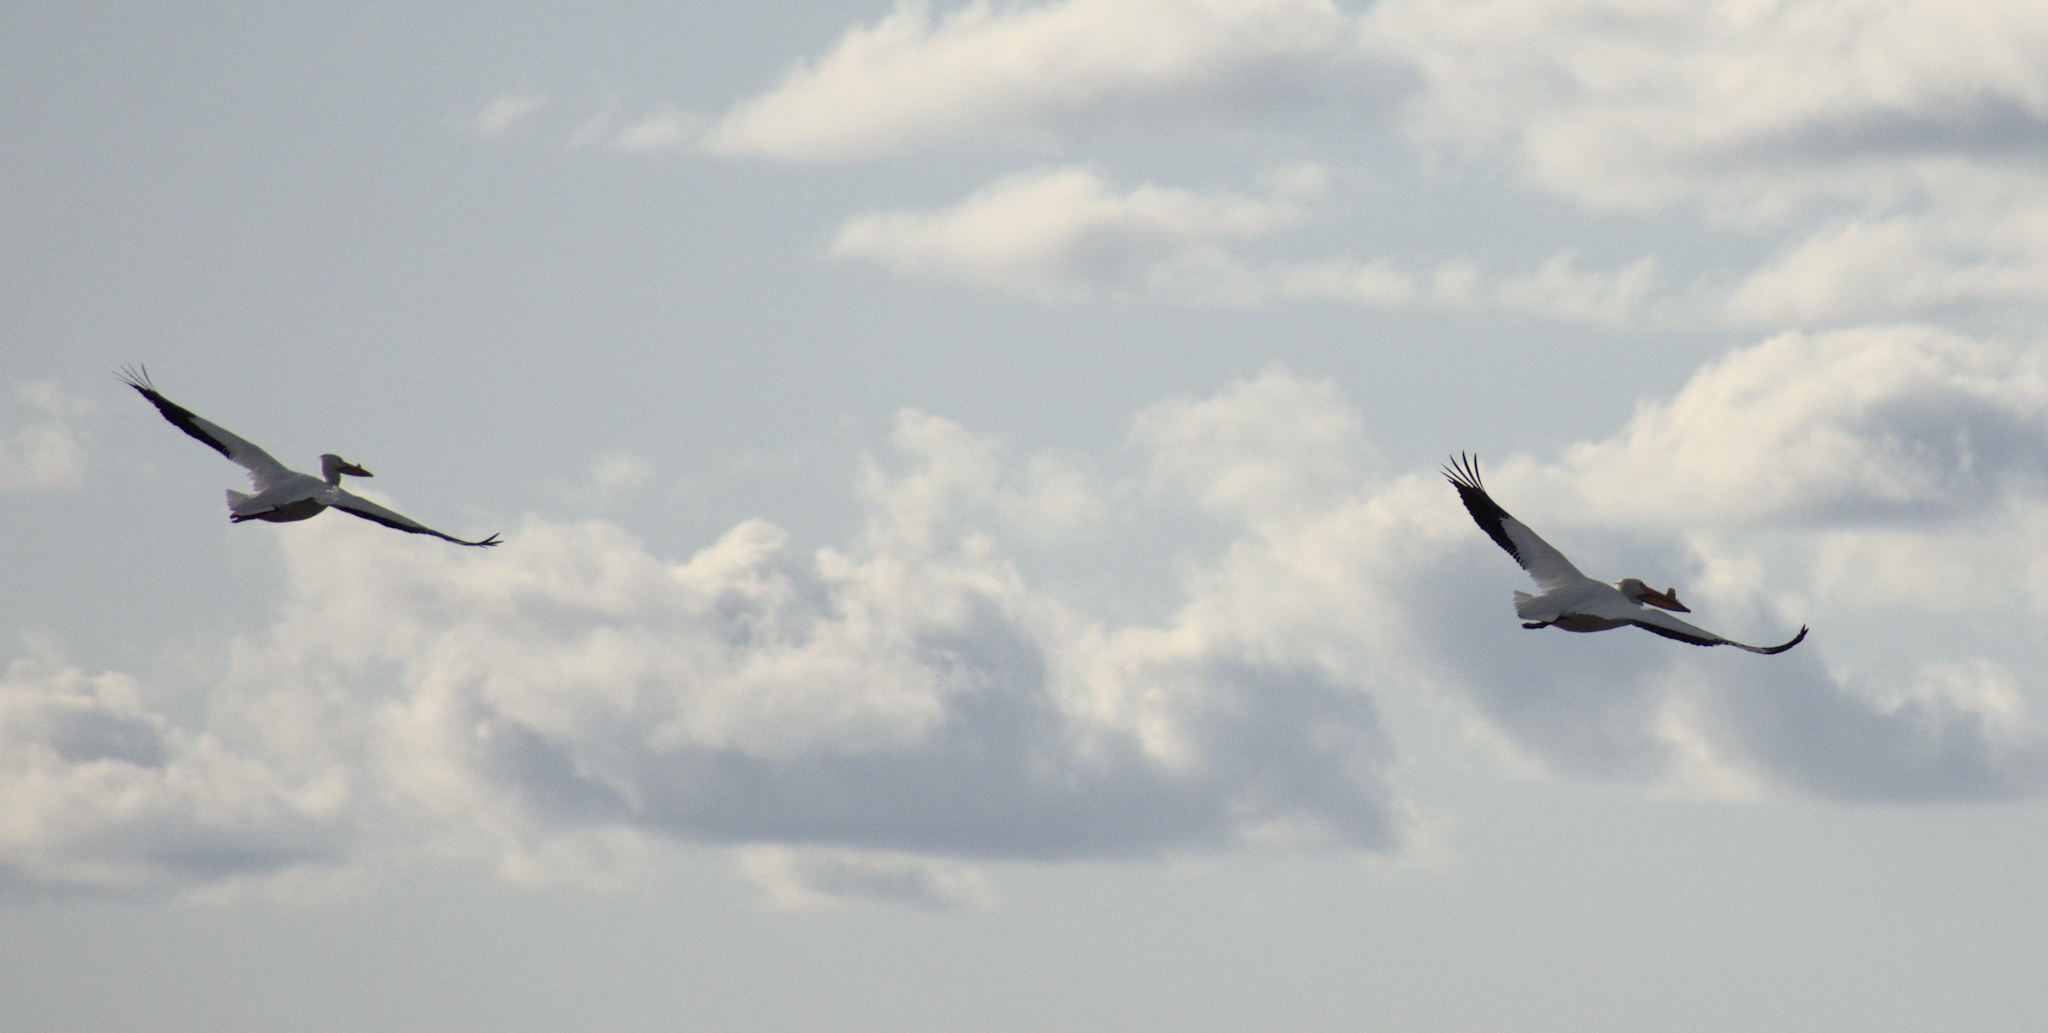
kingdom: Animalia
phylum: Chordata
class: Aves
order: Pelecaniformes
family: Pelecanidae
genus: Pelecanus
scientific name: Pelecanus erythrorhynchos
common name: American white pelican
